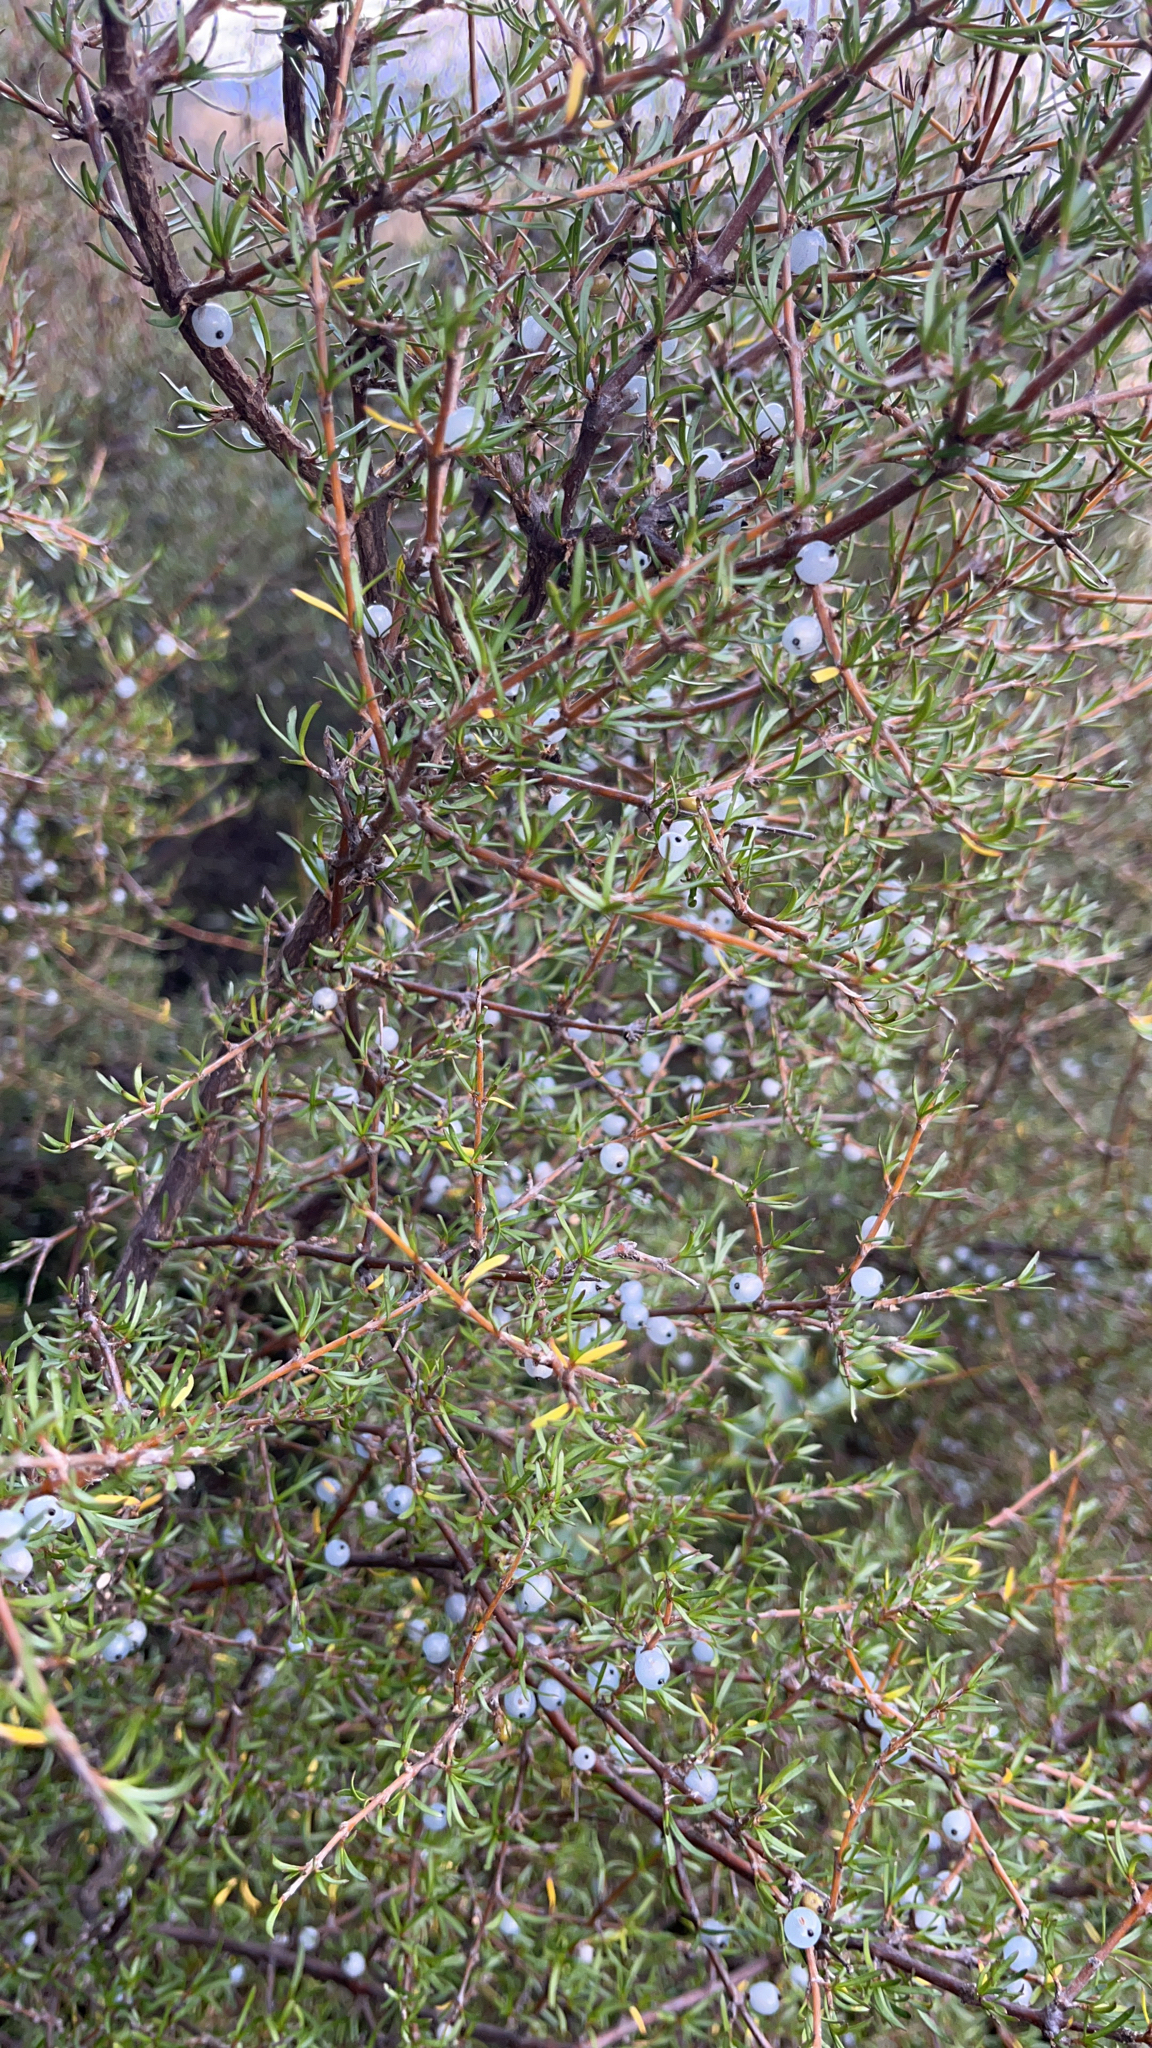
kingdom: Plantae
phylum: Tracheophyta
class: Magnoliopsida
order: Gentianales
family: Rubiaceae
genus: Coprosma
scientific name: Coprosma rugosa
